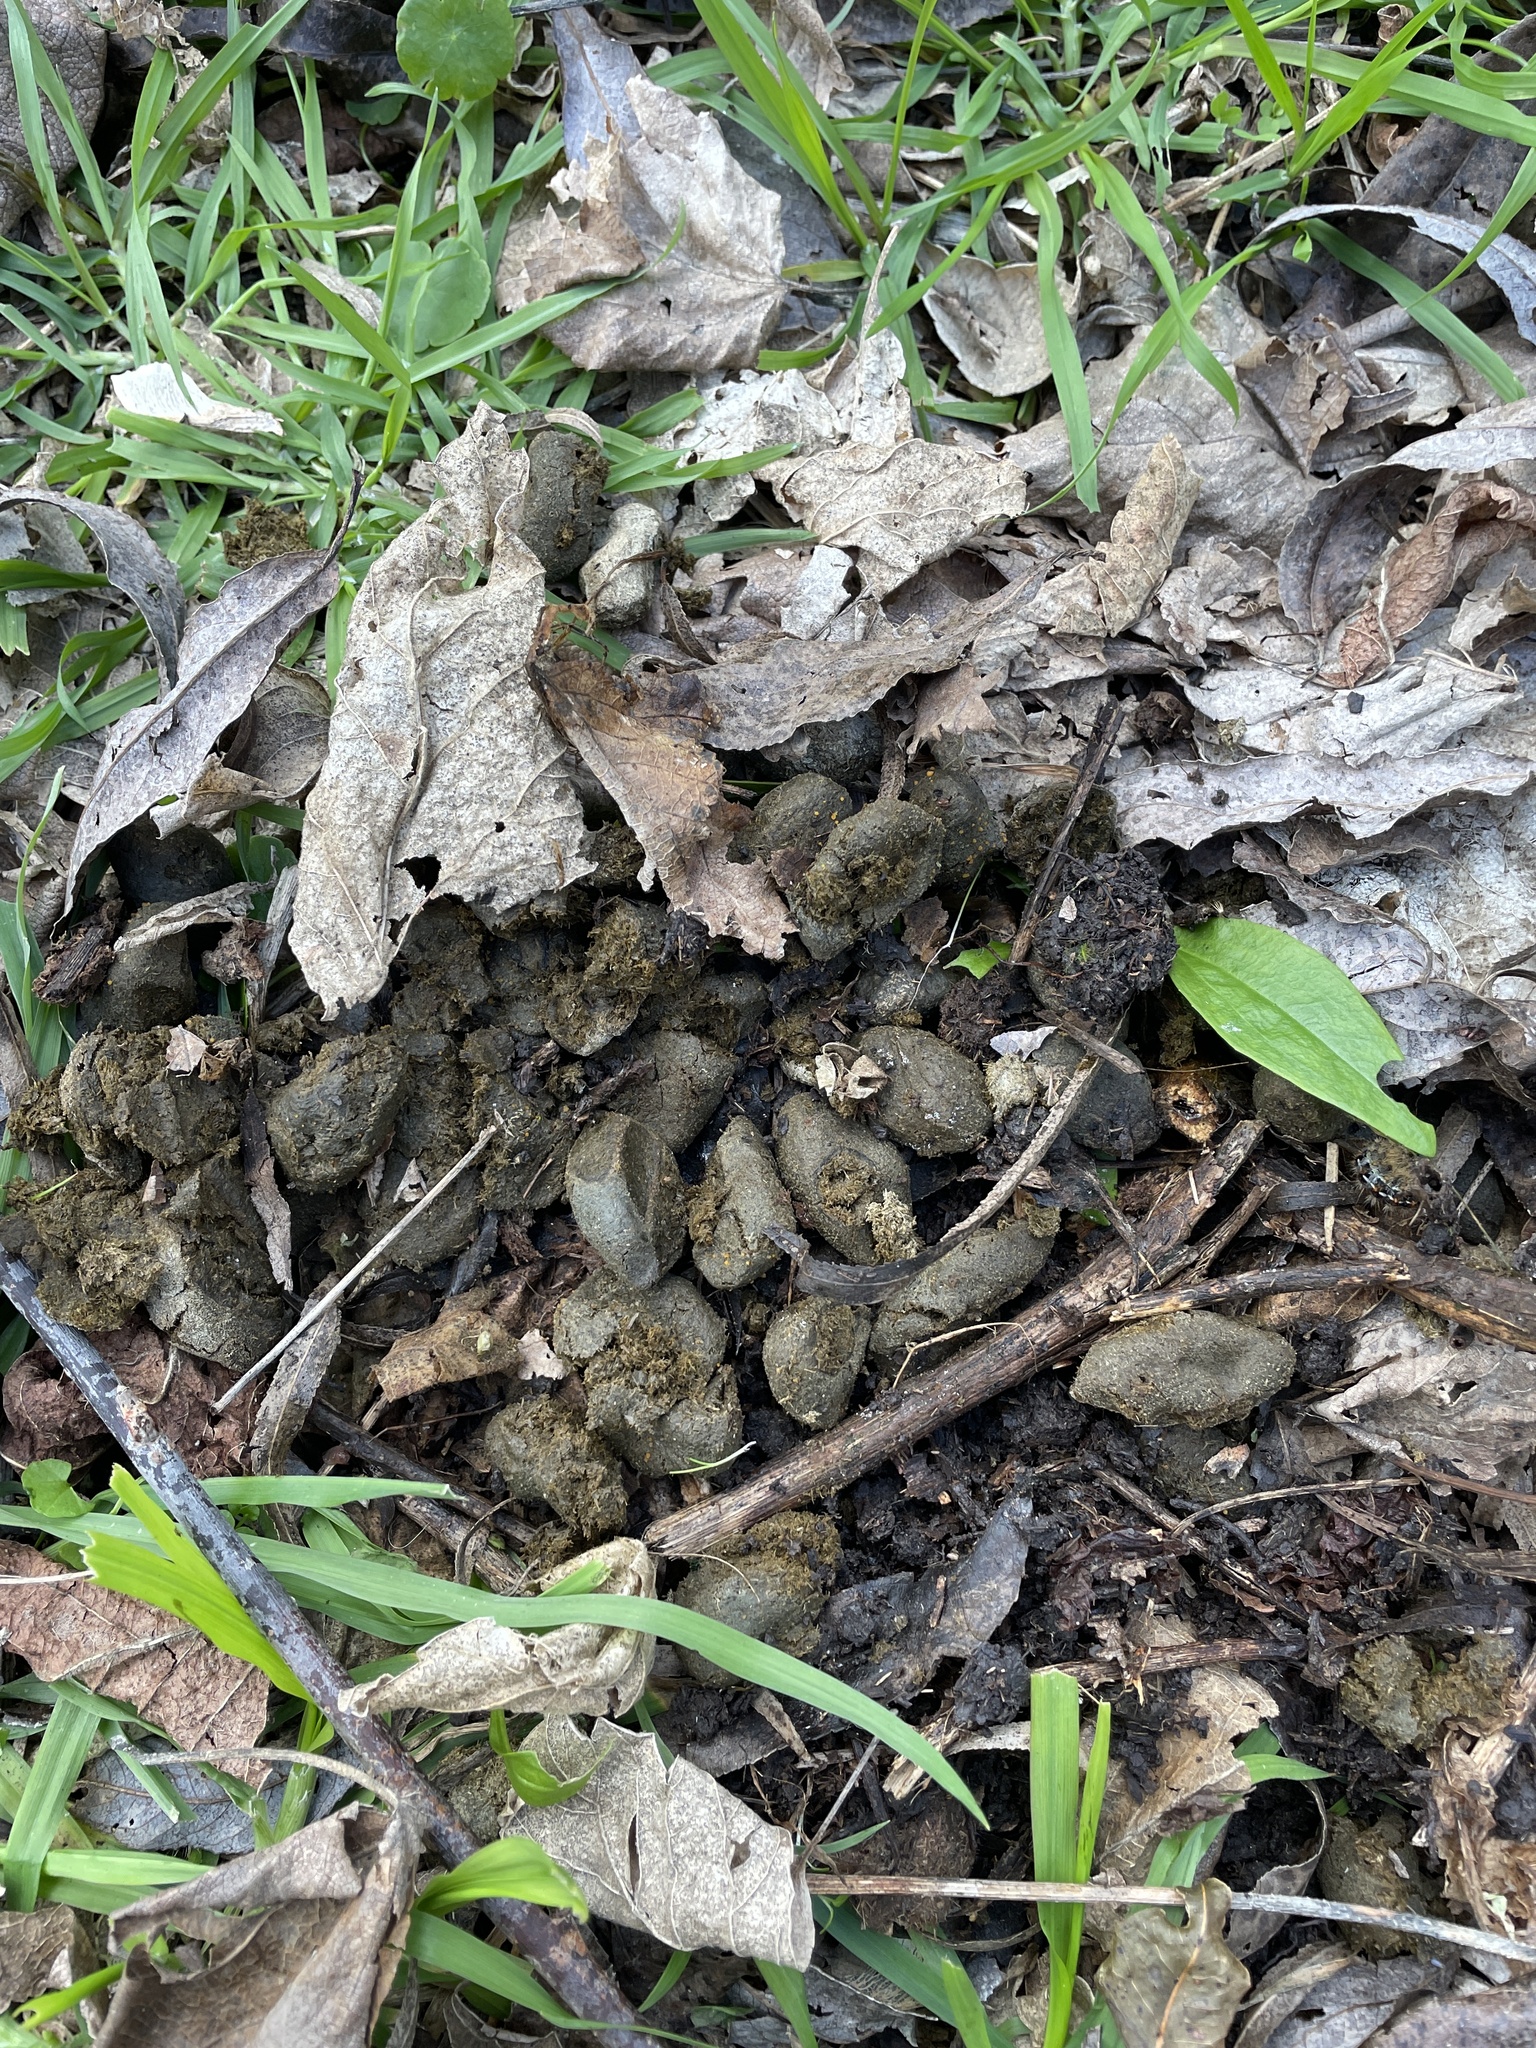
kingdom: Animalia
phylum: Chordata
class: Mammalia
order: Rodentia
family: Caviidae
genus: Hydrochoerus
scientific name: Hydrochoerus hydrochaeris
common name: Capybara
